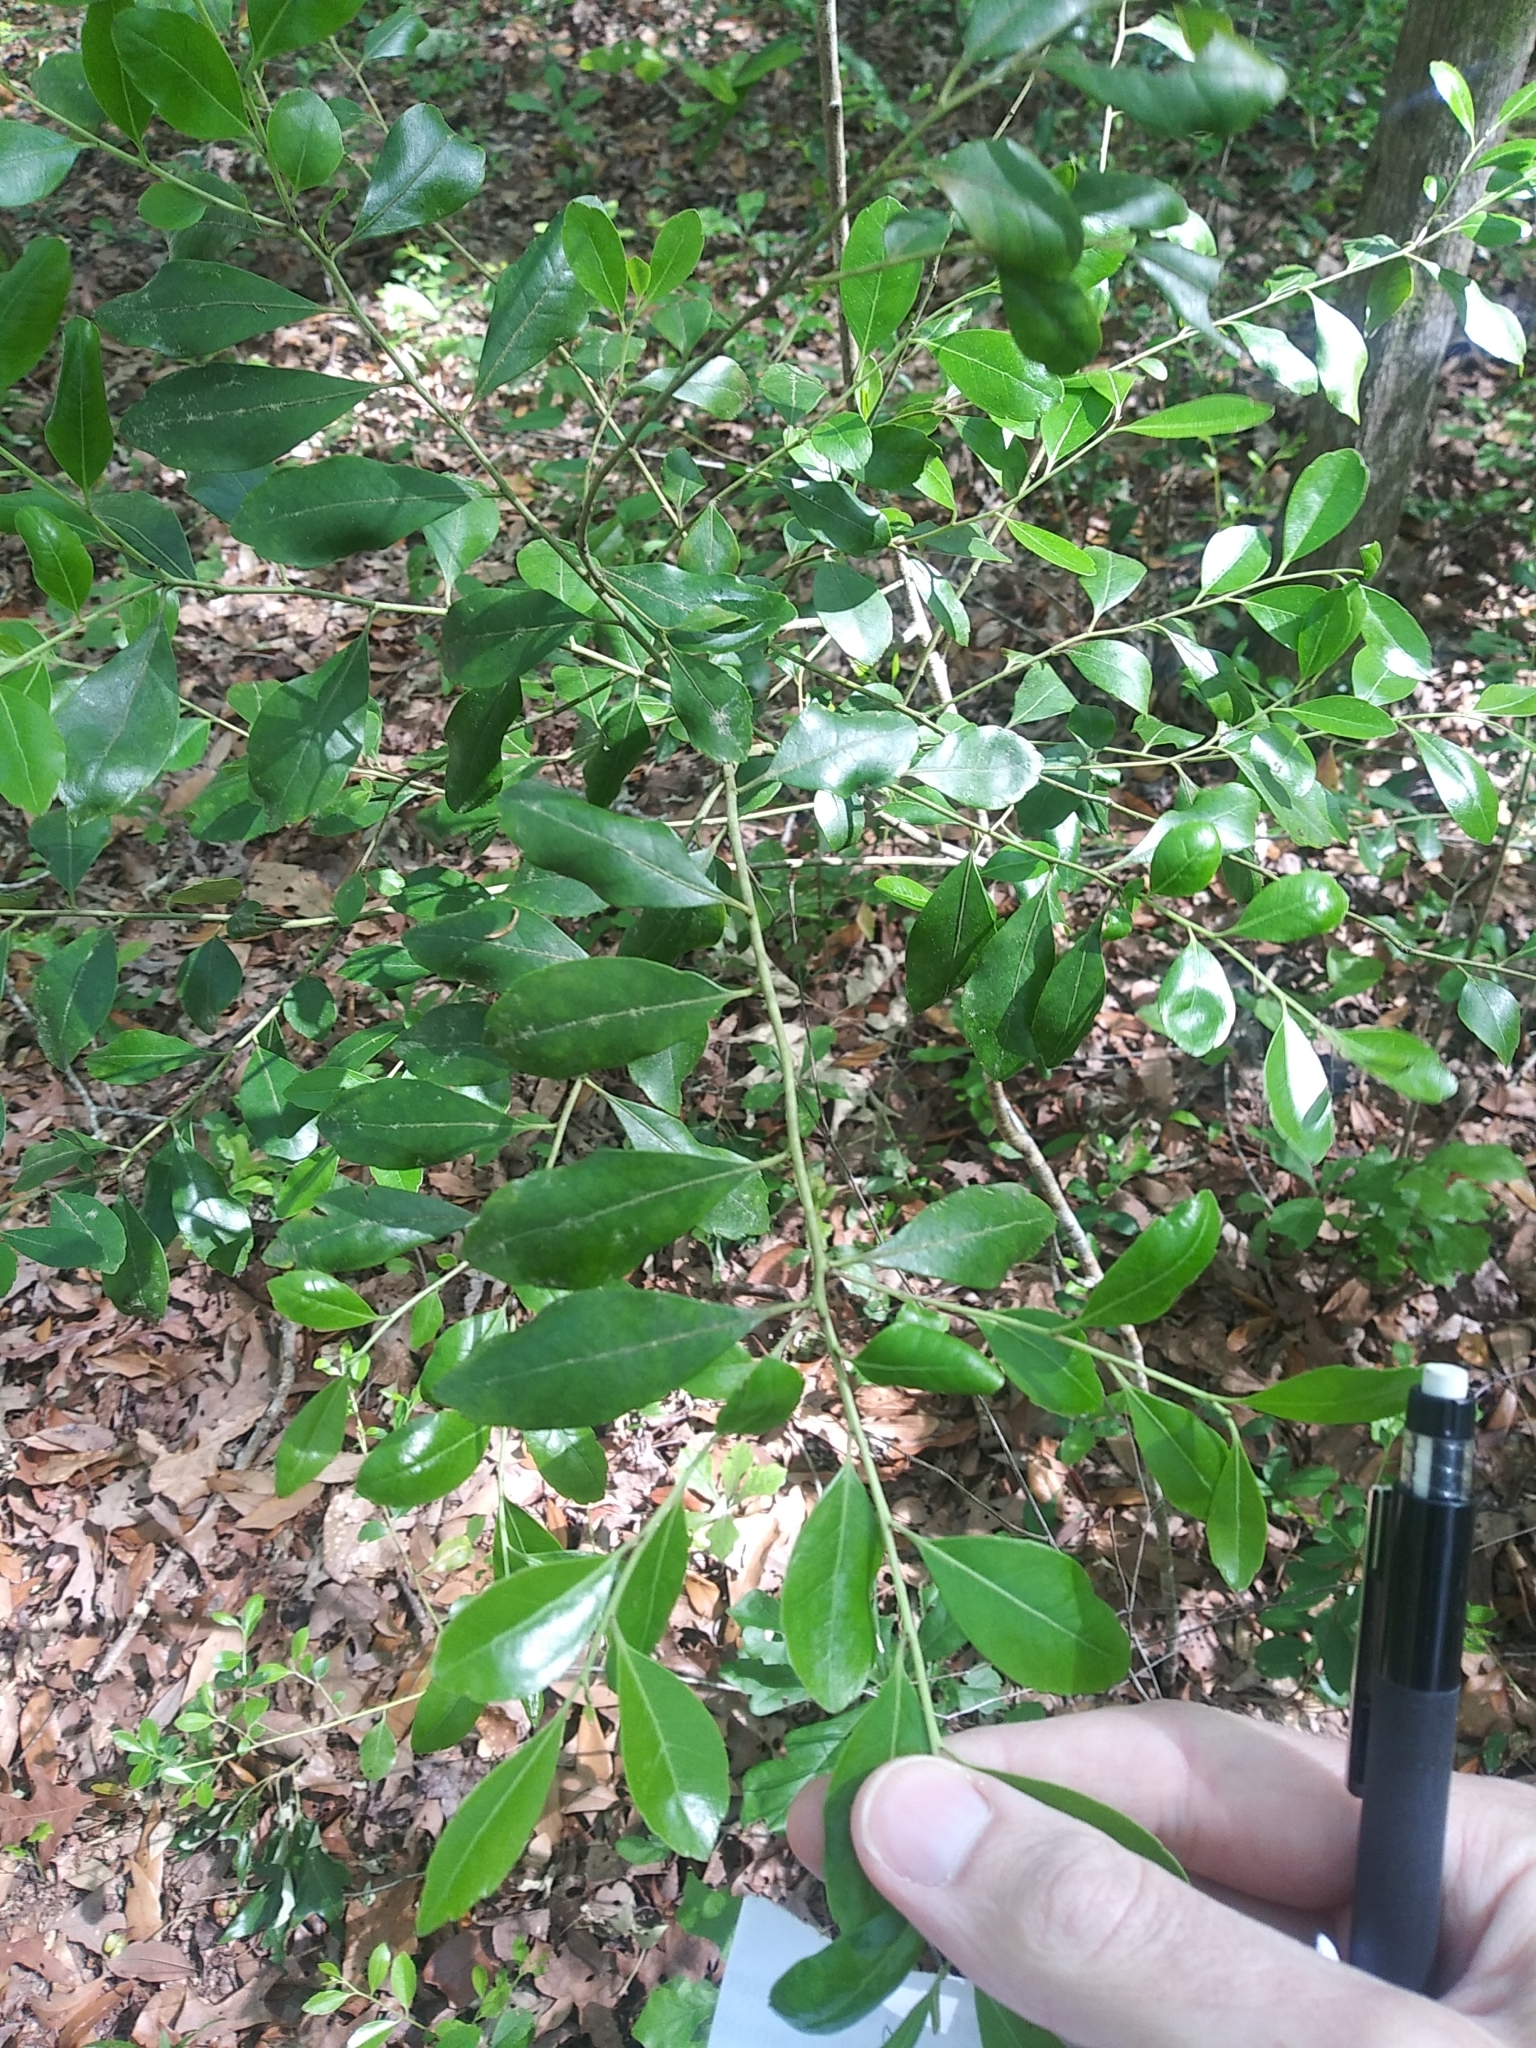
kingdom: Plantae
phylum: Tracheophyta
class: Magnoliopsida
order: Aquifoliales
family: Aquifoliaceae
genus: Ilex
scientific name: Ilex glabra
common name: Bitter gallberry
